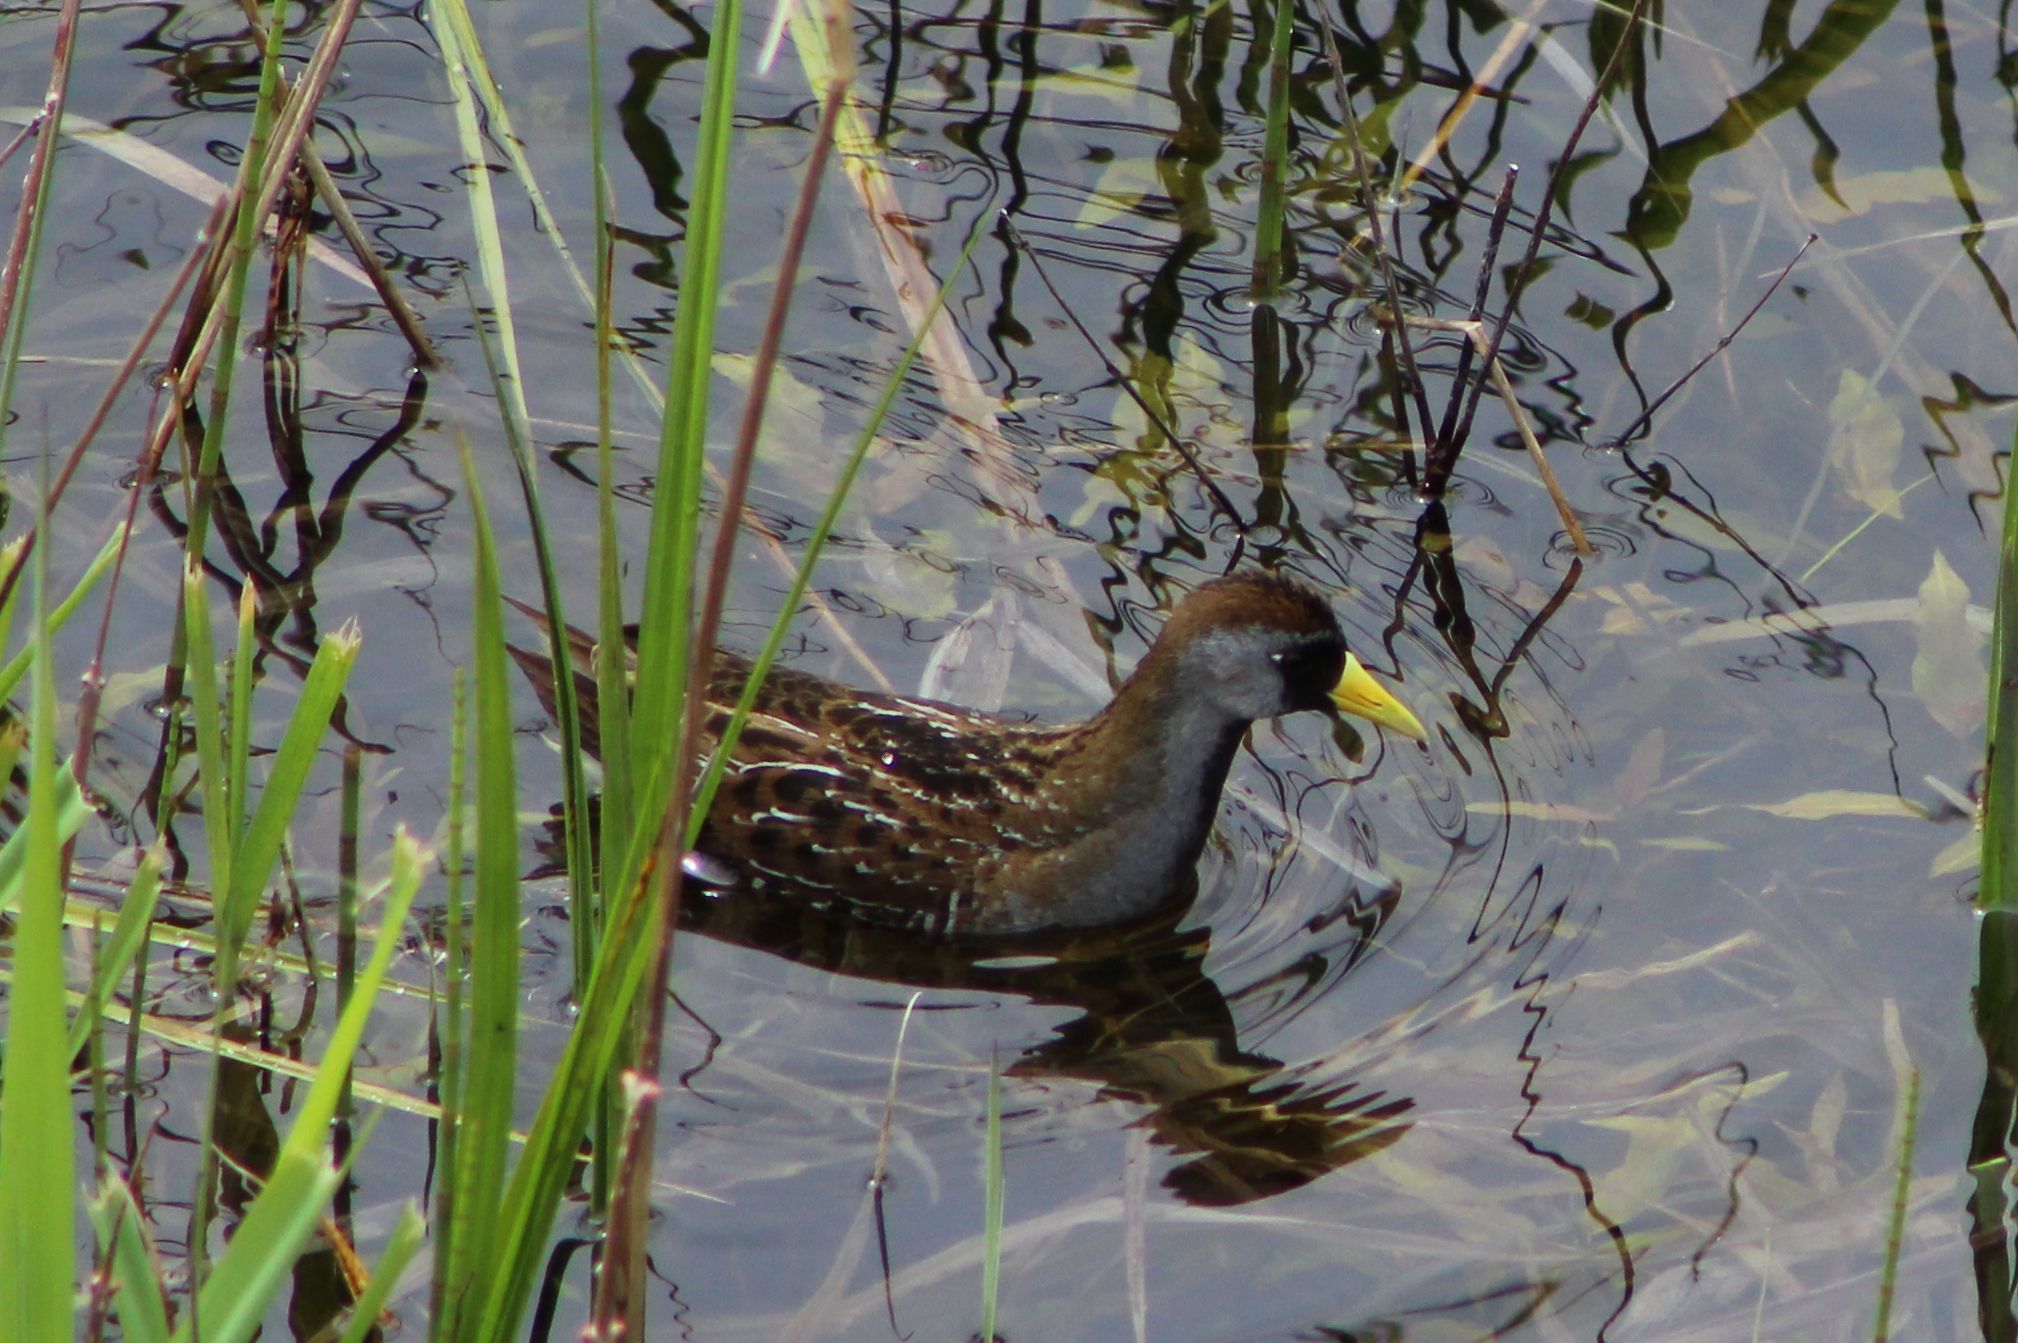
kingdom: Animalia
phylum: Chordata
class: Aves
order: Gruiformes
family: Rallidae
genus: Porzana
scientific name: Porzana carolina
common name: Sora
